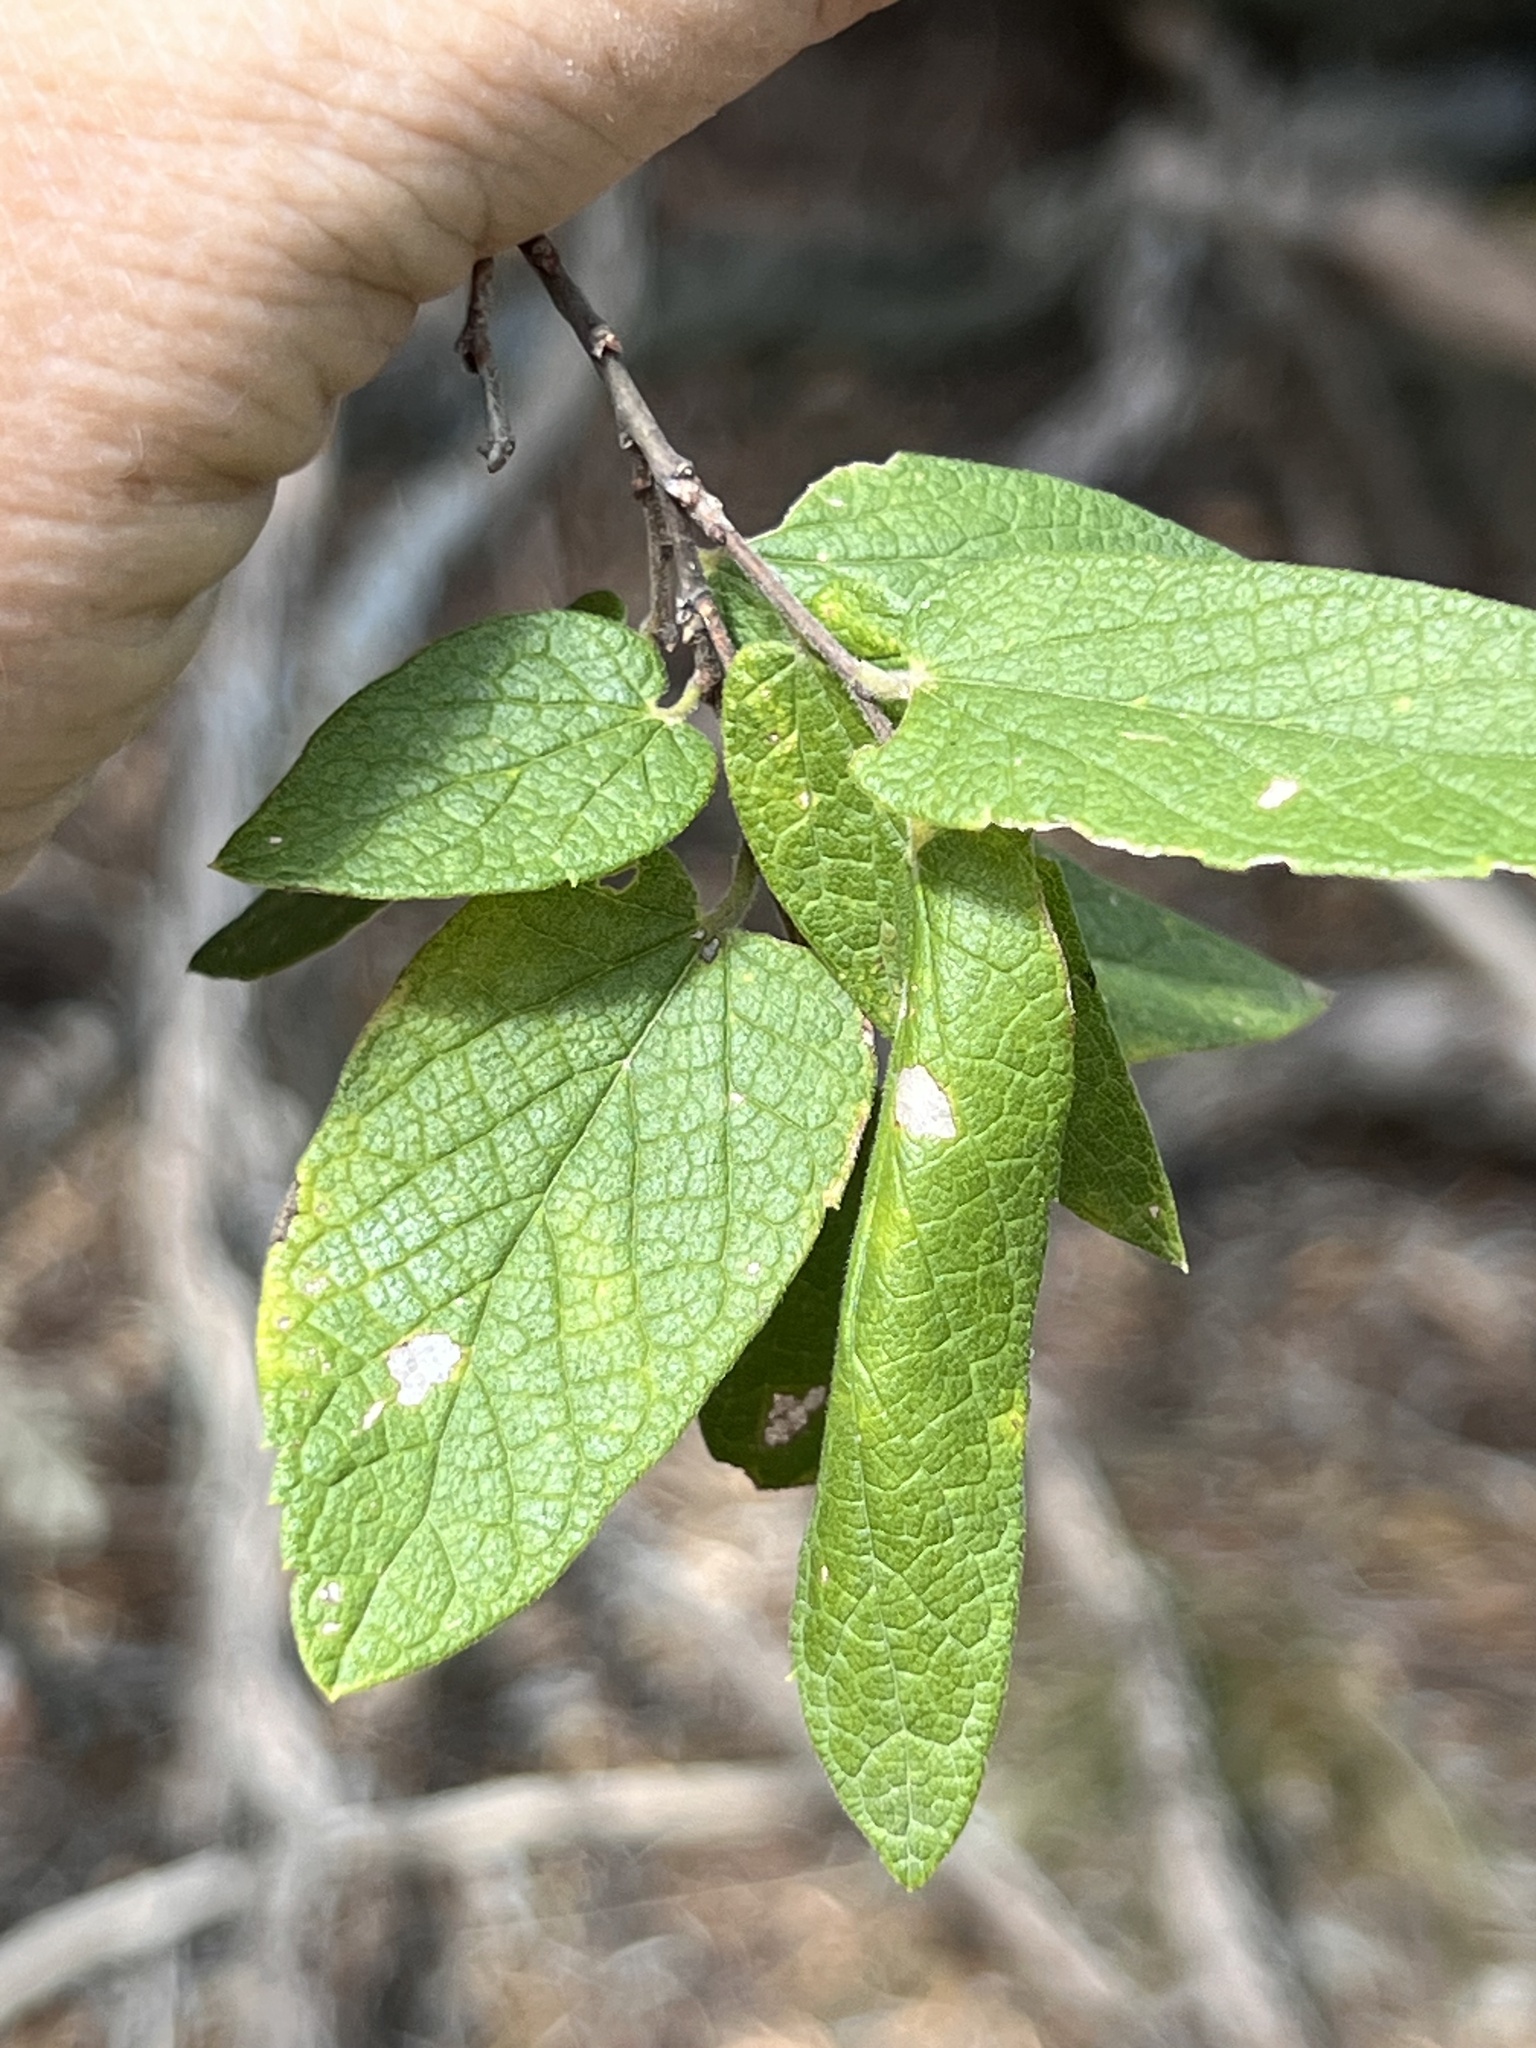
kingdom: Plantae
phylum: Tracheophyta
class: Magnoliopsida
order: Rosales
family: Cannabaceae
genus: Celtis
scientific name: Celtis reticulata
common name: Netleaf hackberry
